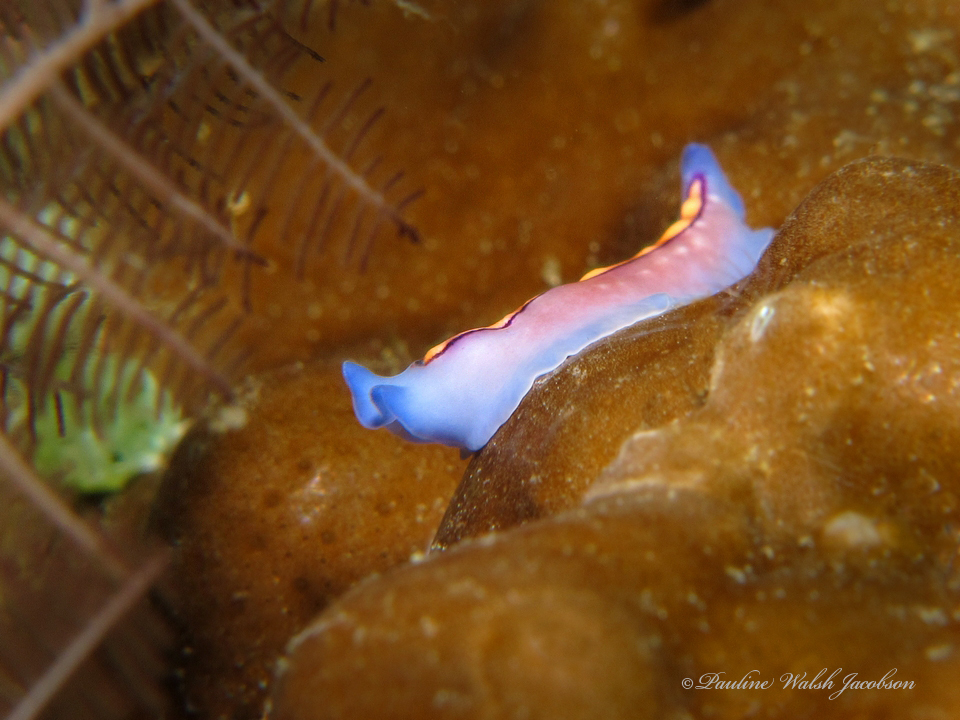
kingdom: Animalia
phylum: Platyhelminthes
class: Turbellaria
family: Pseudocerotidae
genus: Pseudoceros
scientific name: Pseudoceros liparus
